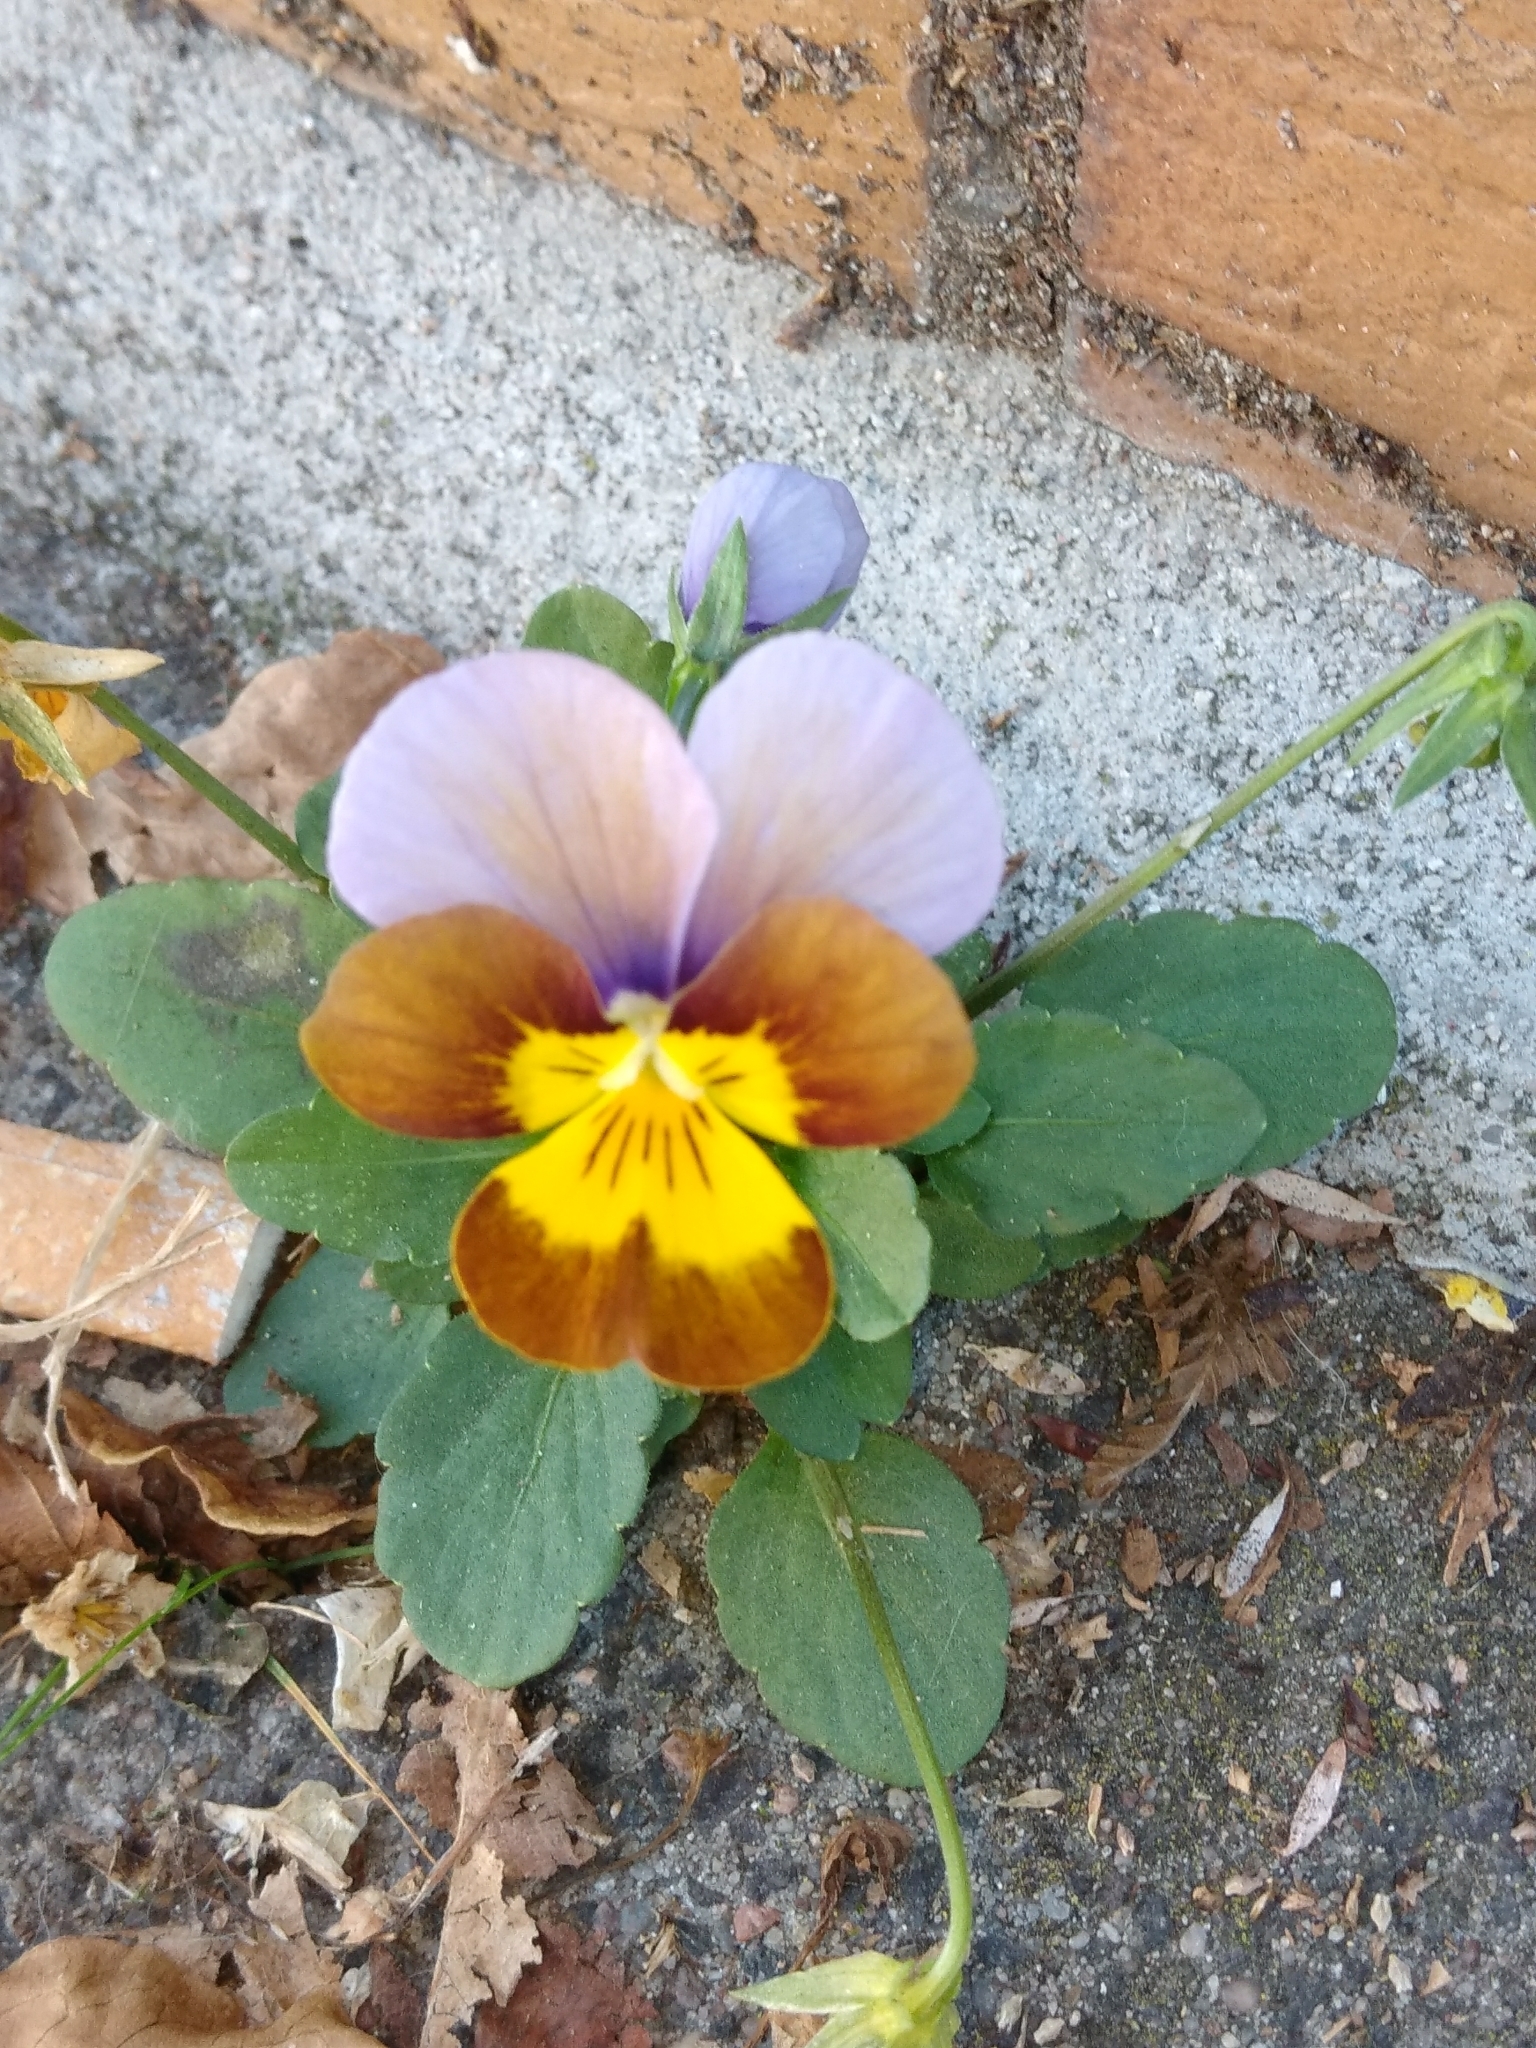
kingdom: Plantae
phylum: Tracheophyta
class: Magnoliopsida
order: Malpighiales
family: Violaceae
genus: Viola
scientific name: Viola wittrockiana
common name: Garden pansy
